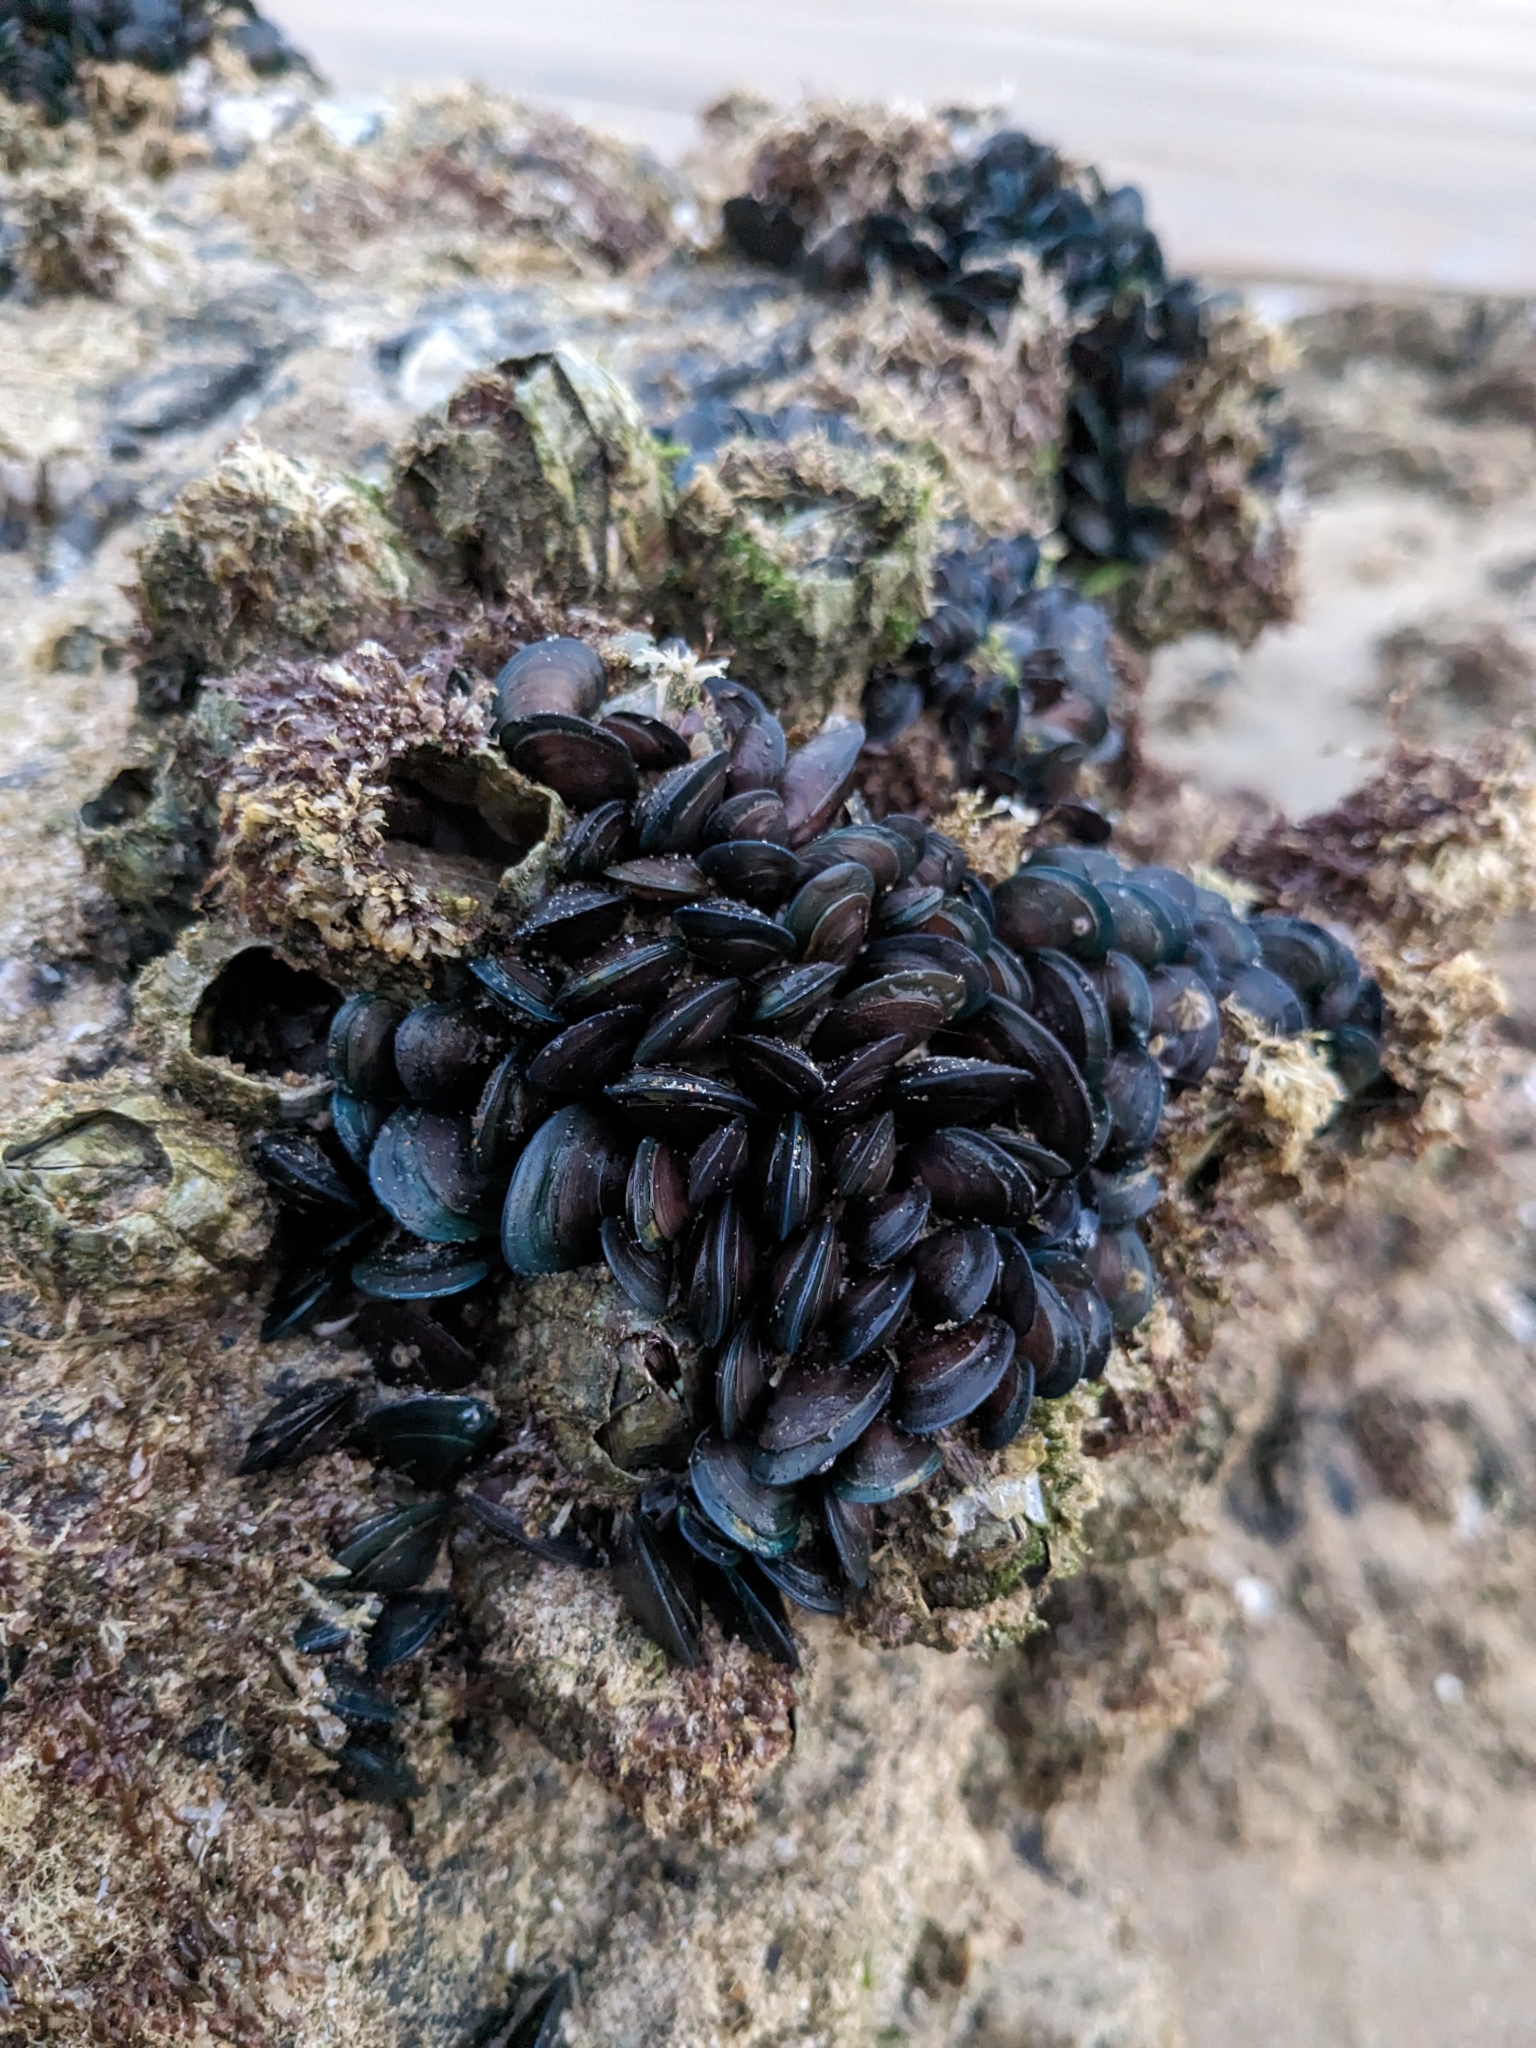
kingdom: Animalia
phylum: Mollusca
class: Bivalvia
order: Mytilida
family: Mytilidae
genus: Perna
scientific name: Perna viridis
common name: Green mussel
